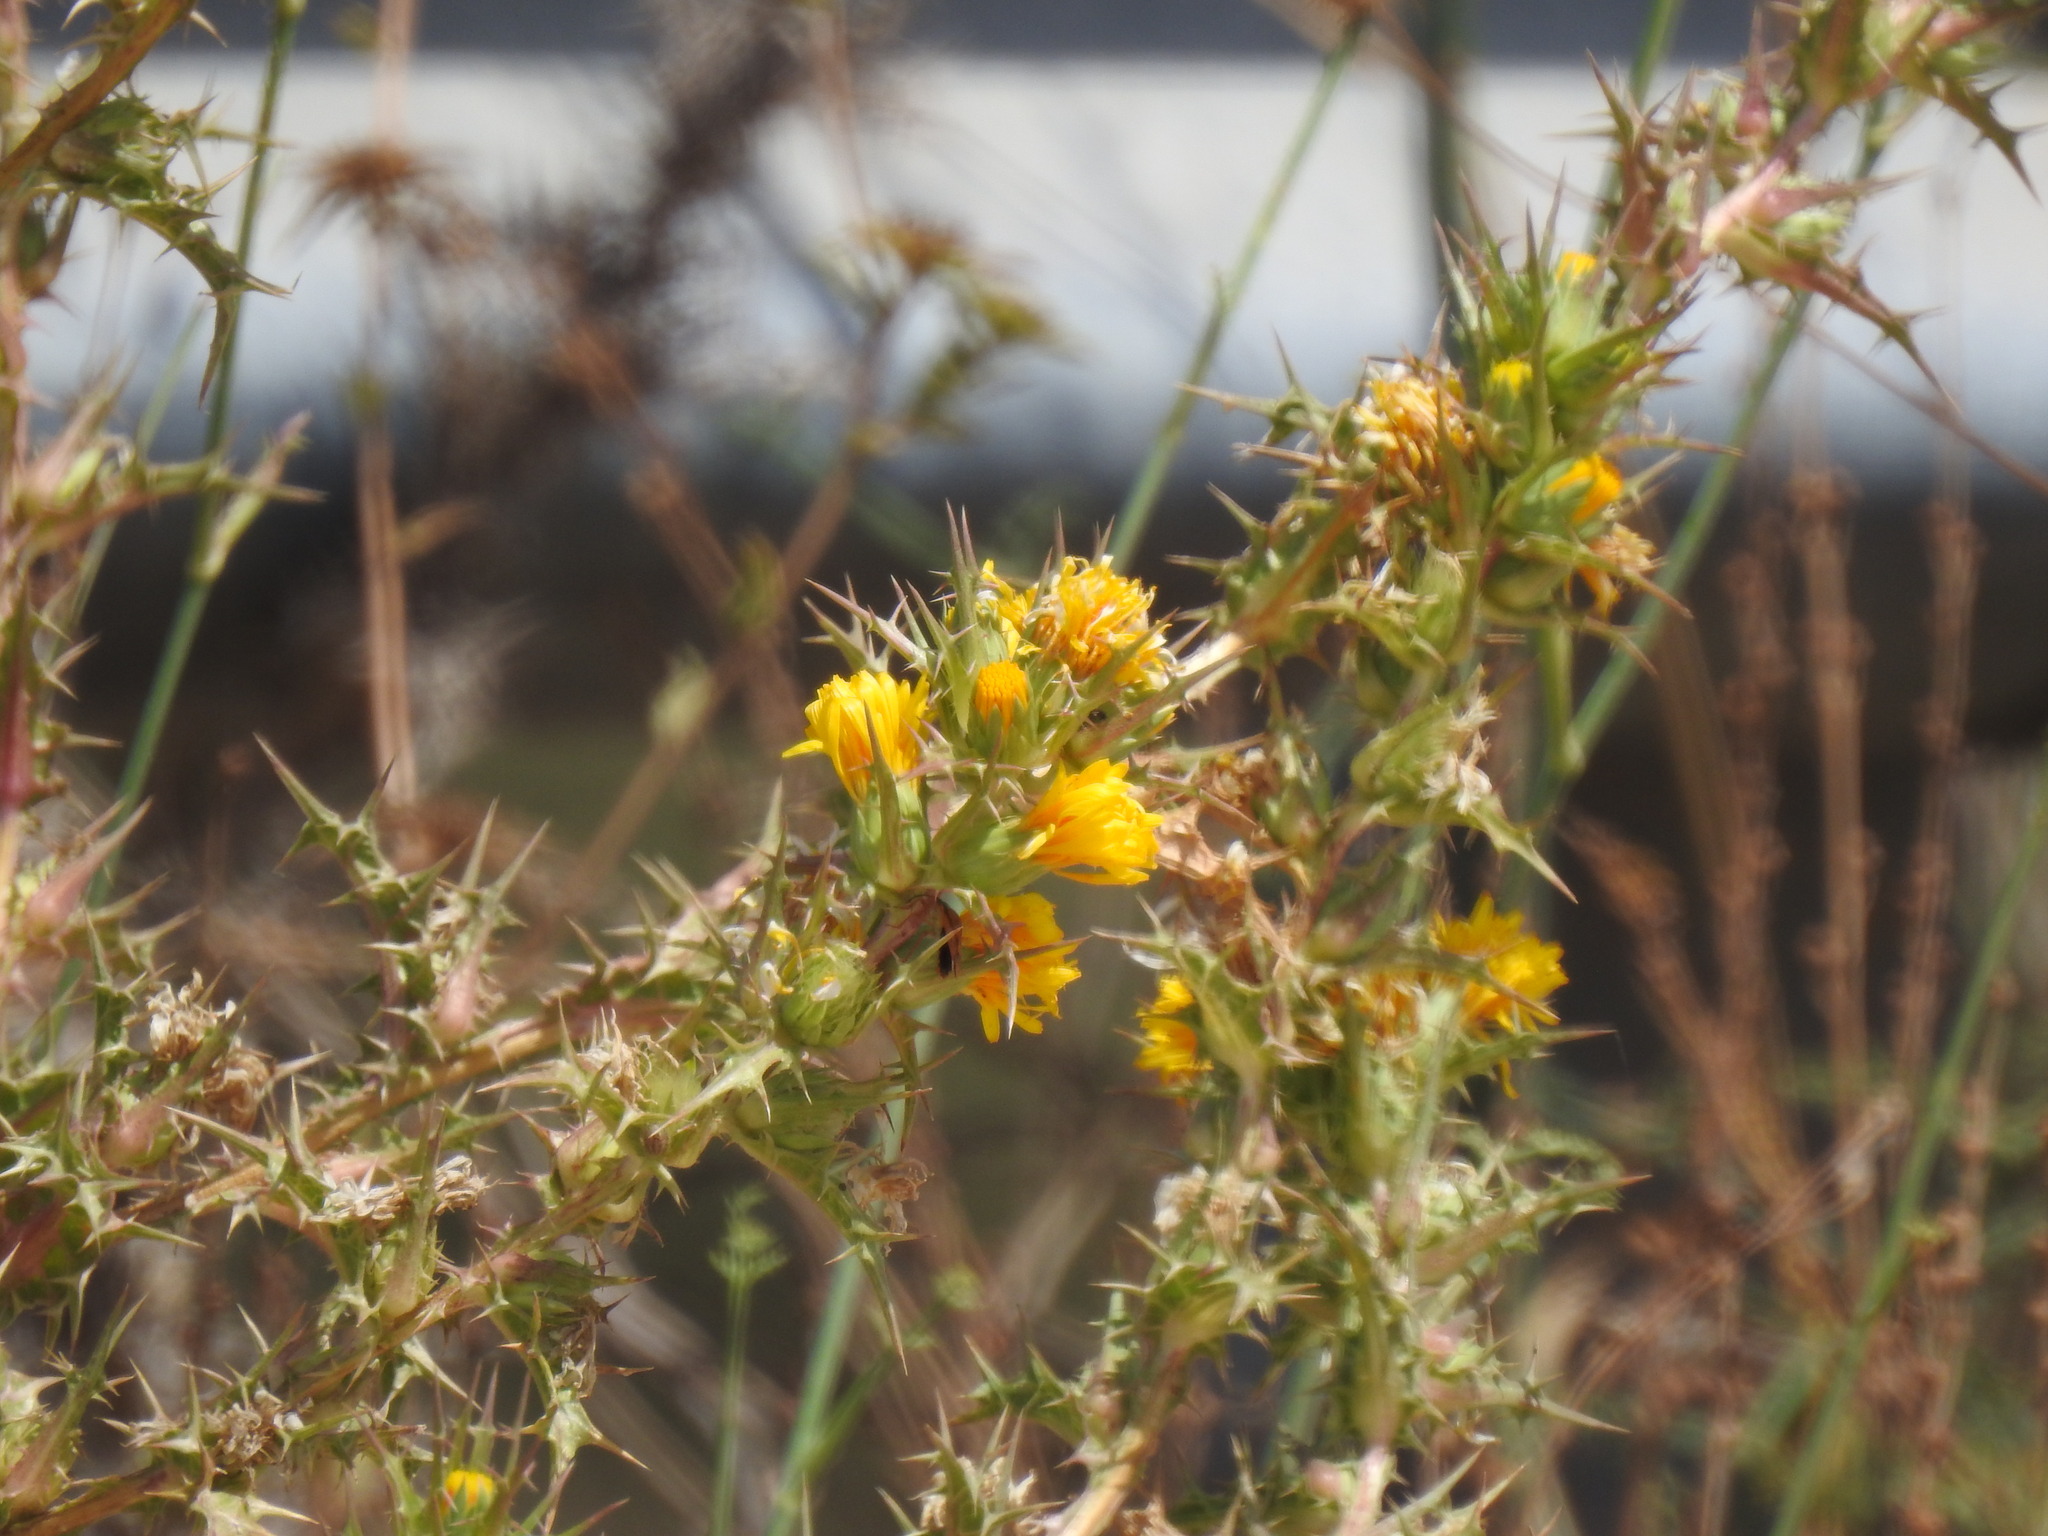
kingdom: Plantae
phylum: Tracheophyta
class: Magnoliopsida
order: Asterales
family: Asteraceae
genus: Scolymus
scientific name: Scolymus hispanicus
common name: Golden thistle
